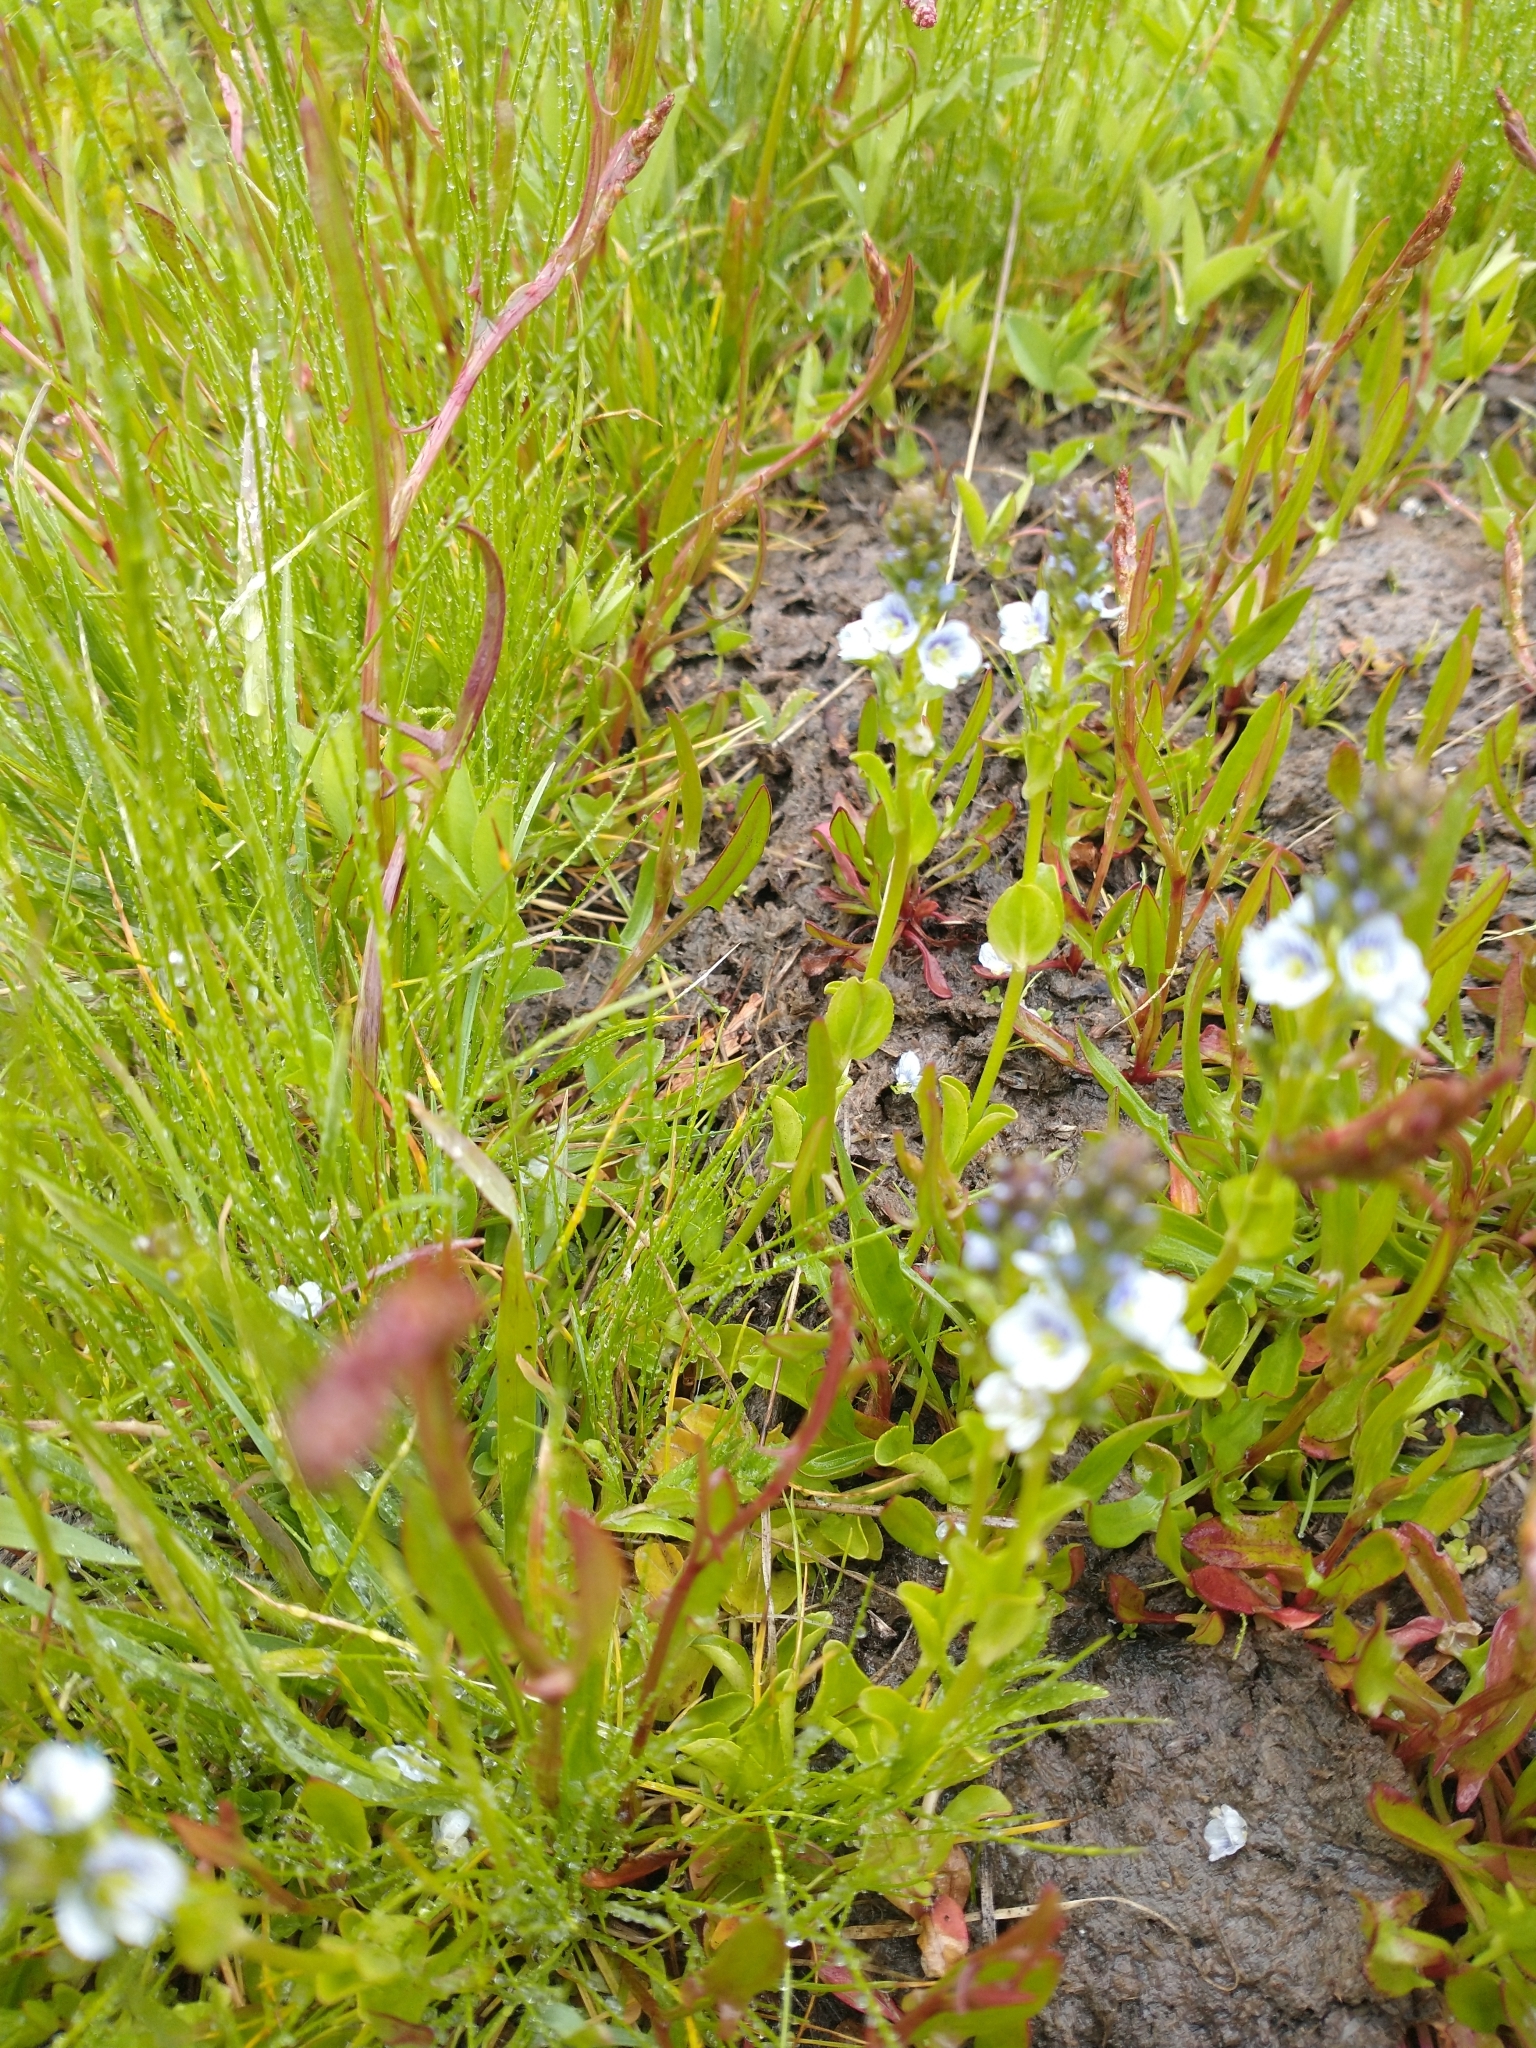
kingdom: Plantae
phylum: Tracheophyta
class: Magnoliopsida
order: Lamiales
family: Plantaginaceae
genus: Veronica
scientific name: Veronica serpyllifolia
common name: Thyme-leaved speedwell
